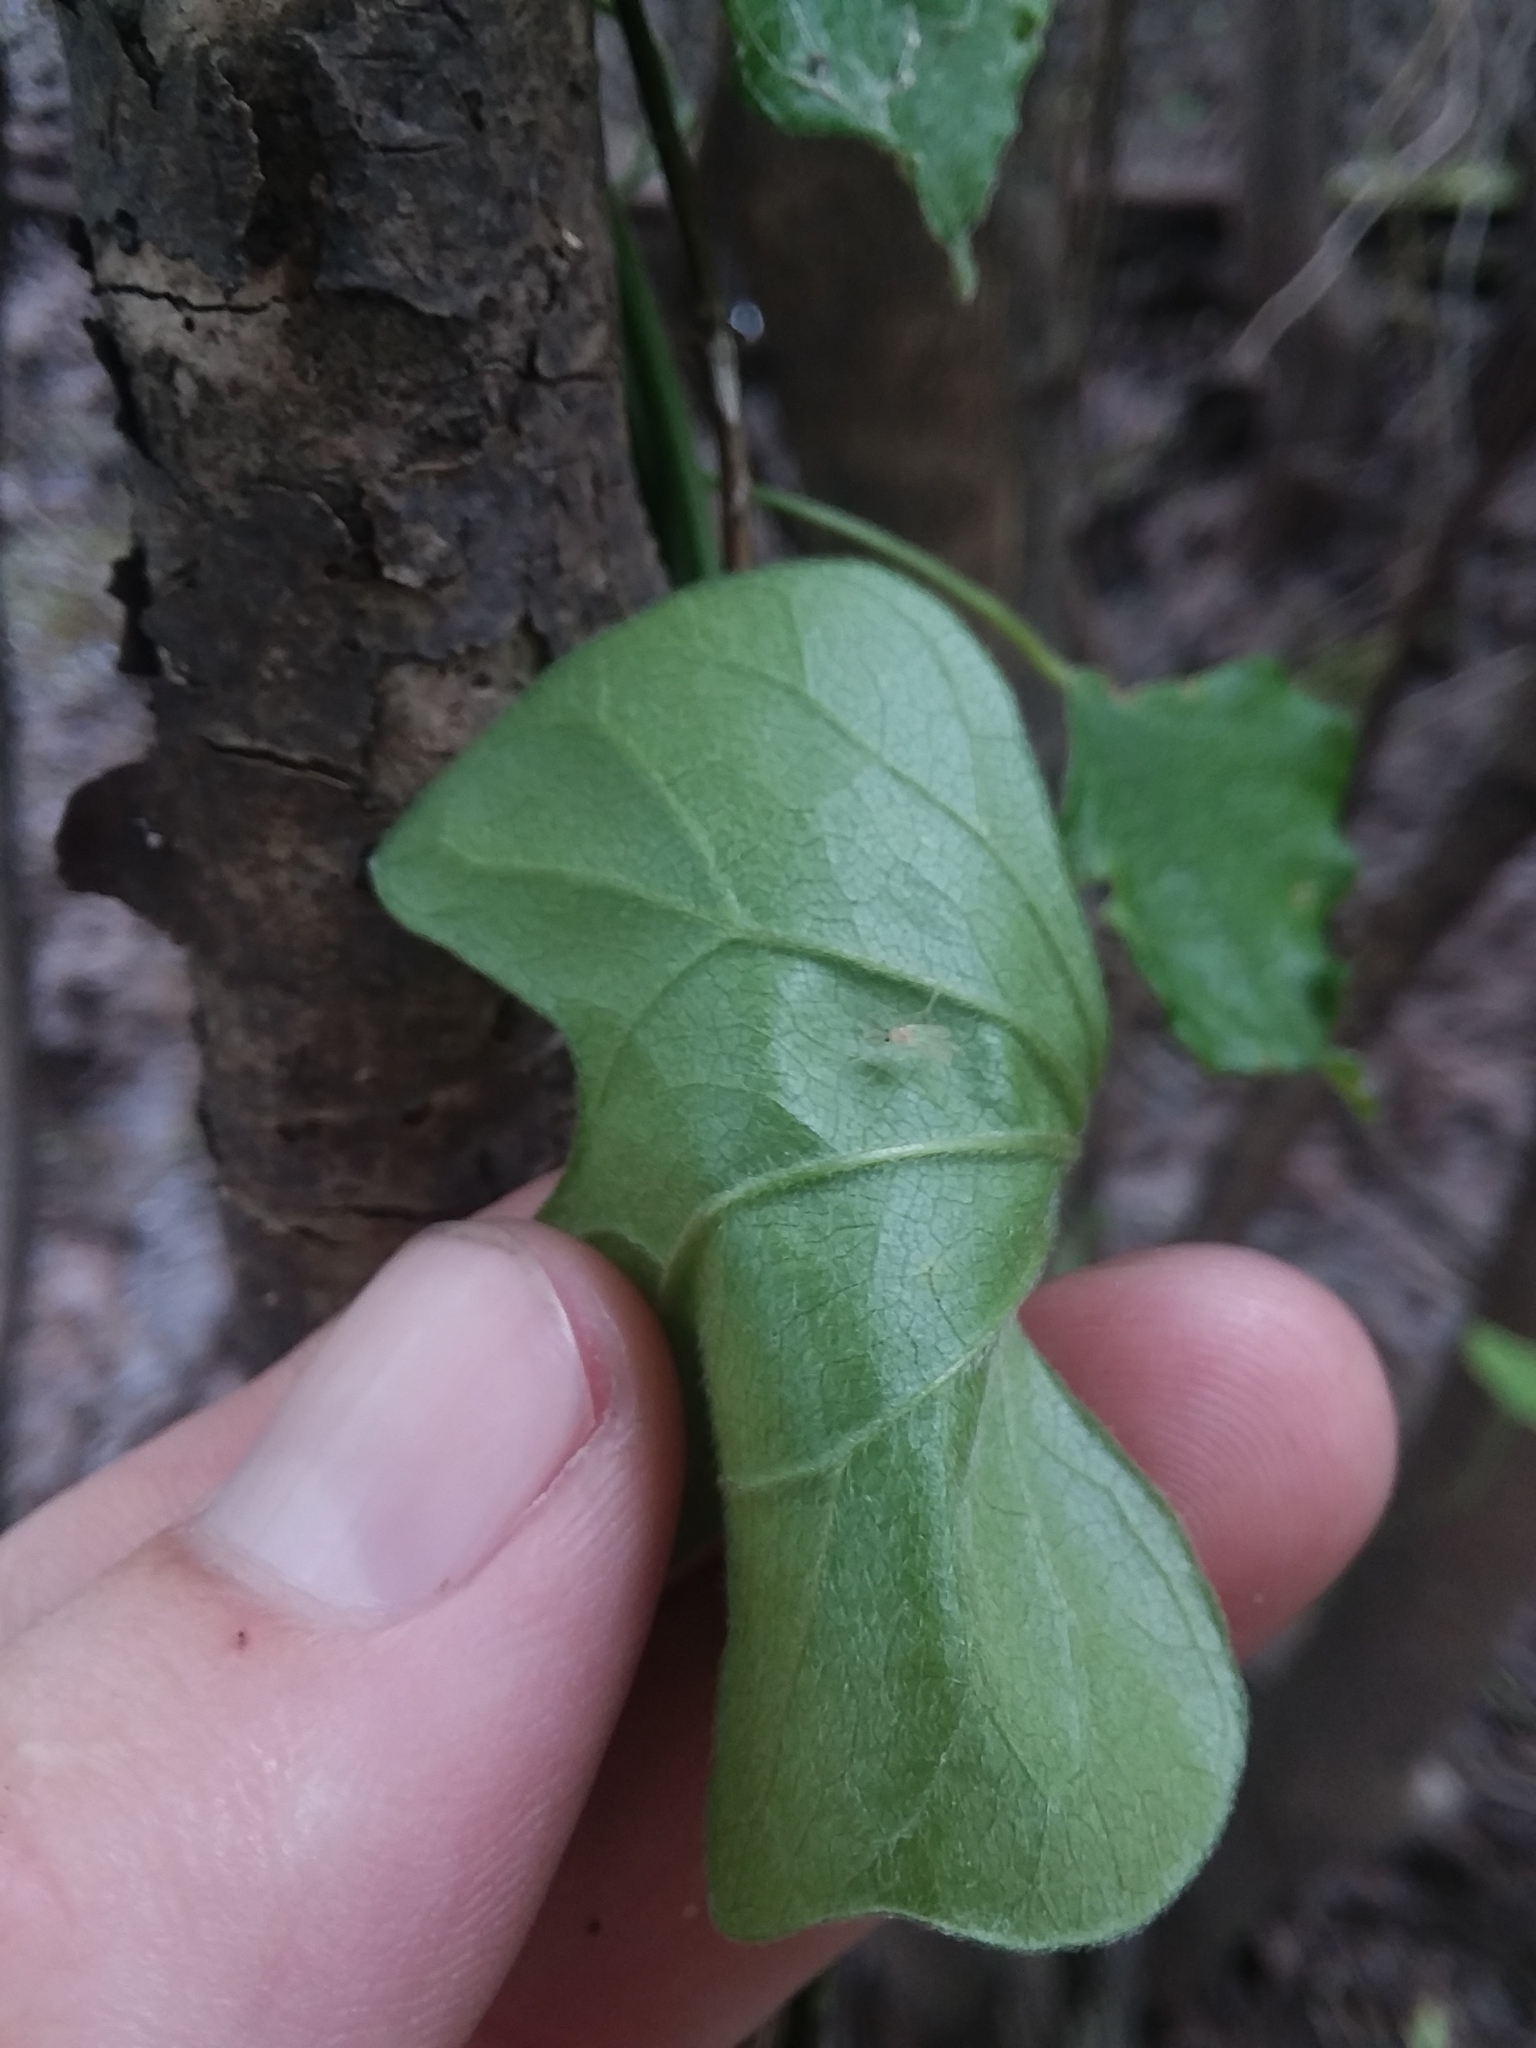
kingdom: Plantae
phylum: Tracheophyta
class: Magnoliopsida
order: Ranunculales
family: Menispermaceae
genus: Cocculus
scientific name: Cocculus carolinus
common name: Carolina moonseed
